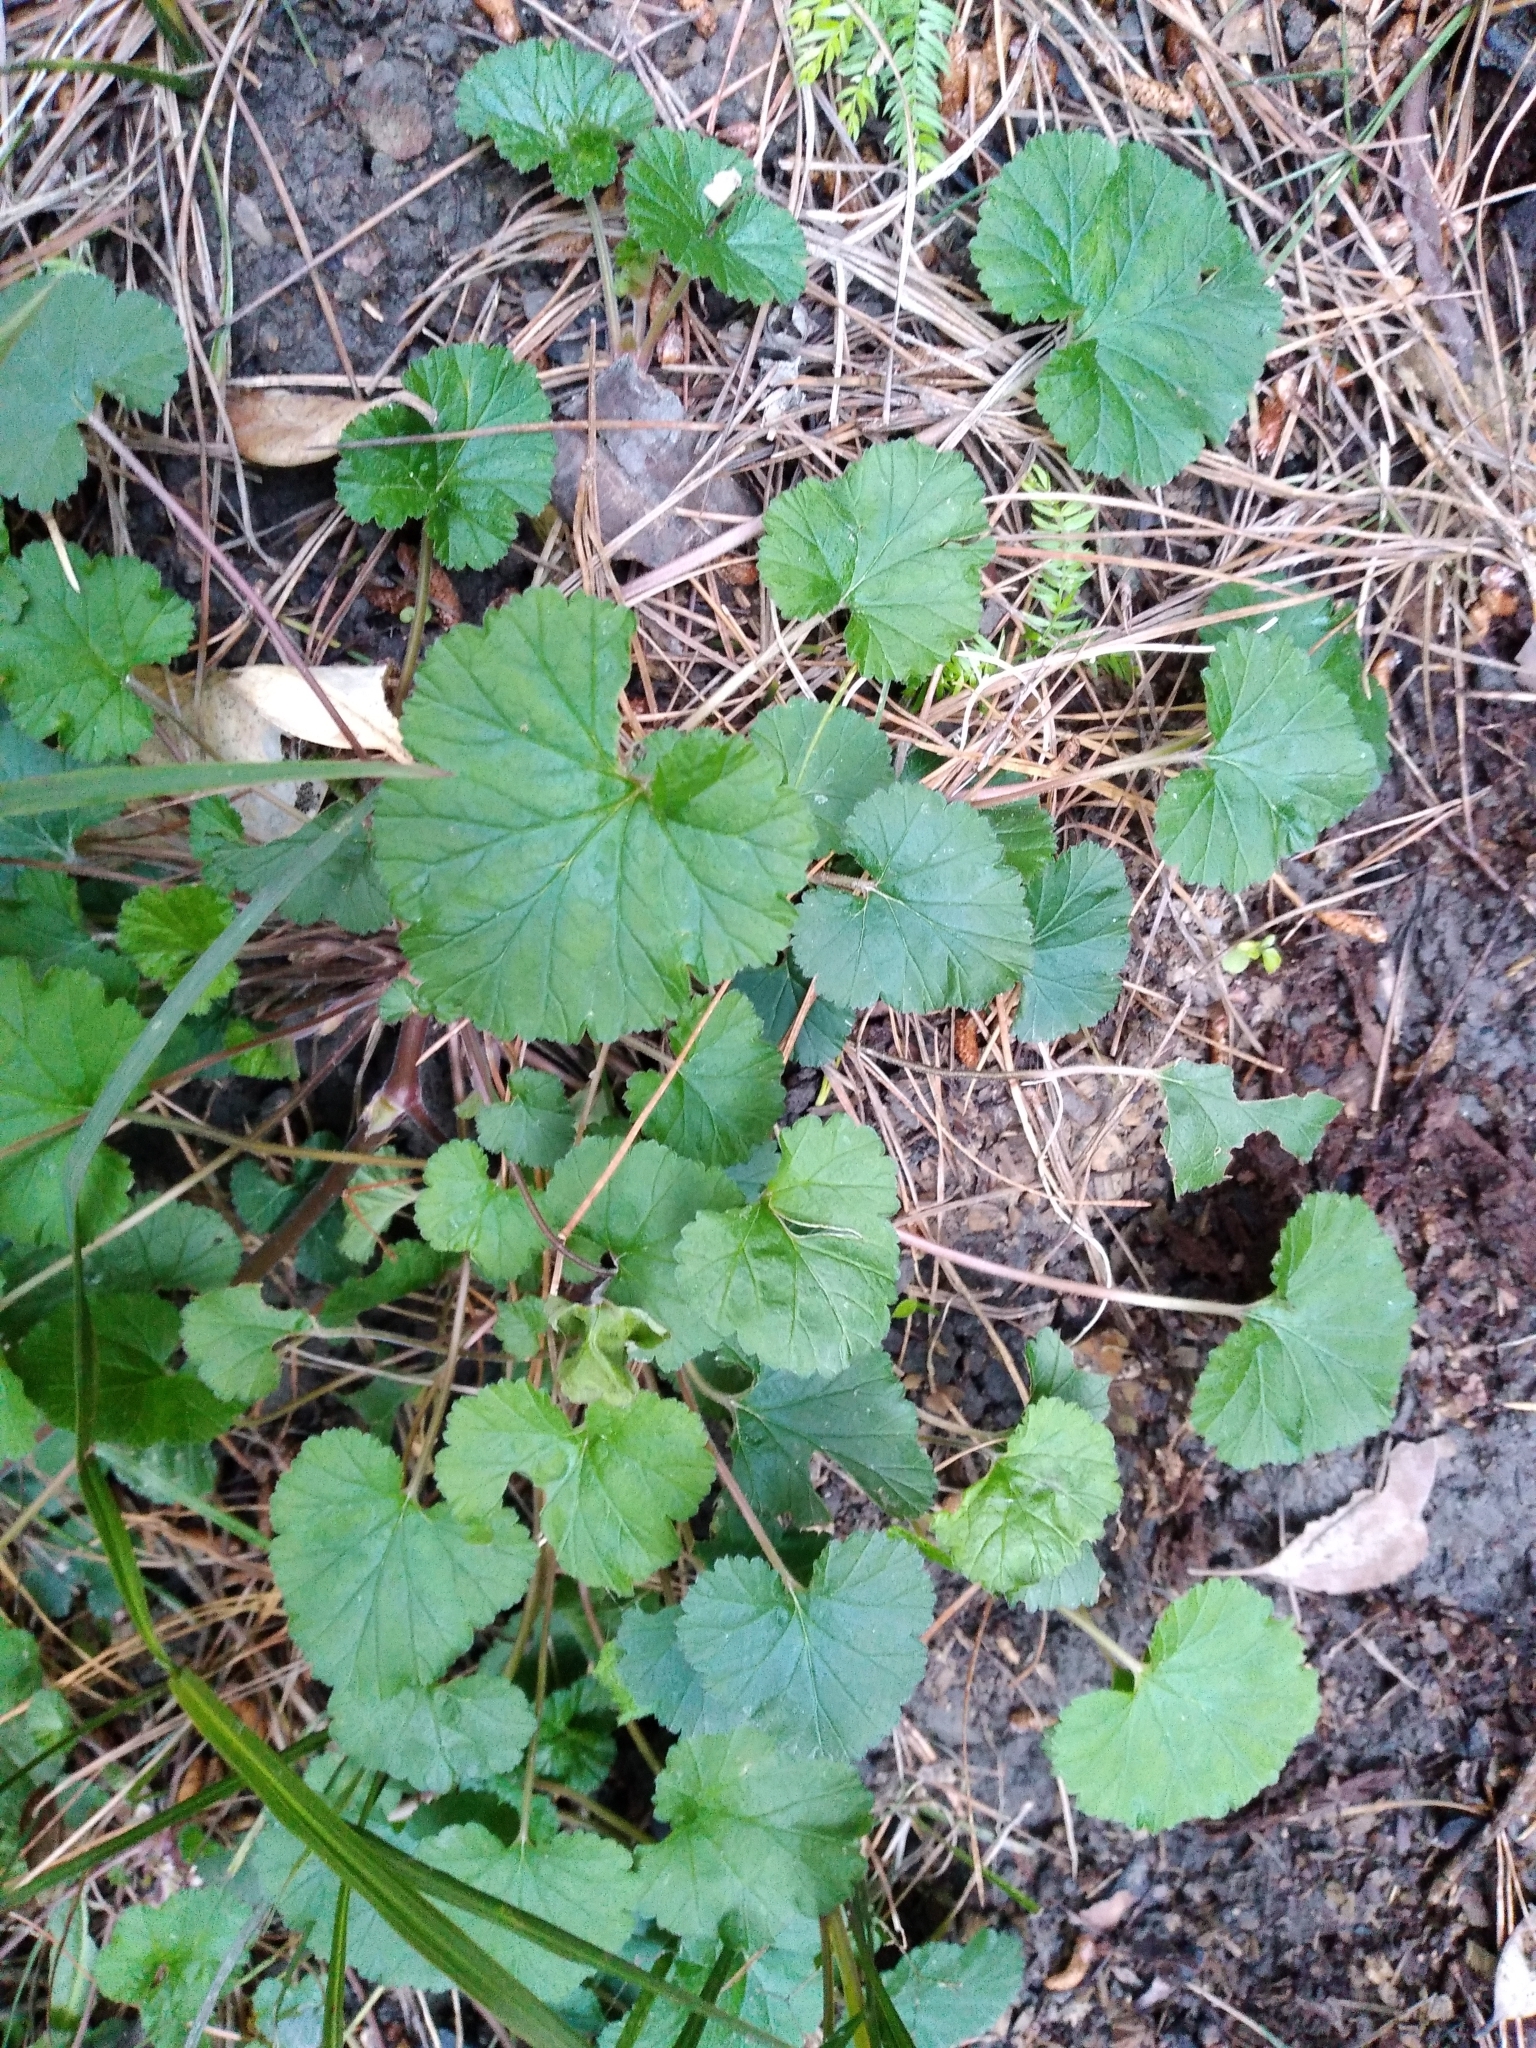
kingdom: Plantae
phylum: Tracheophyta
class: Magnoliopsida
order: Geraniales
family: Geraniaceae
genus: Pelargonium
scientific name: Pelargonium inodorum
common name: Kopata geranium
